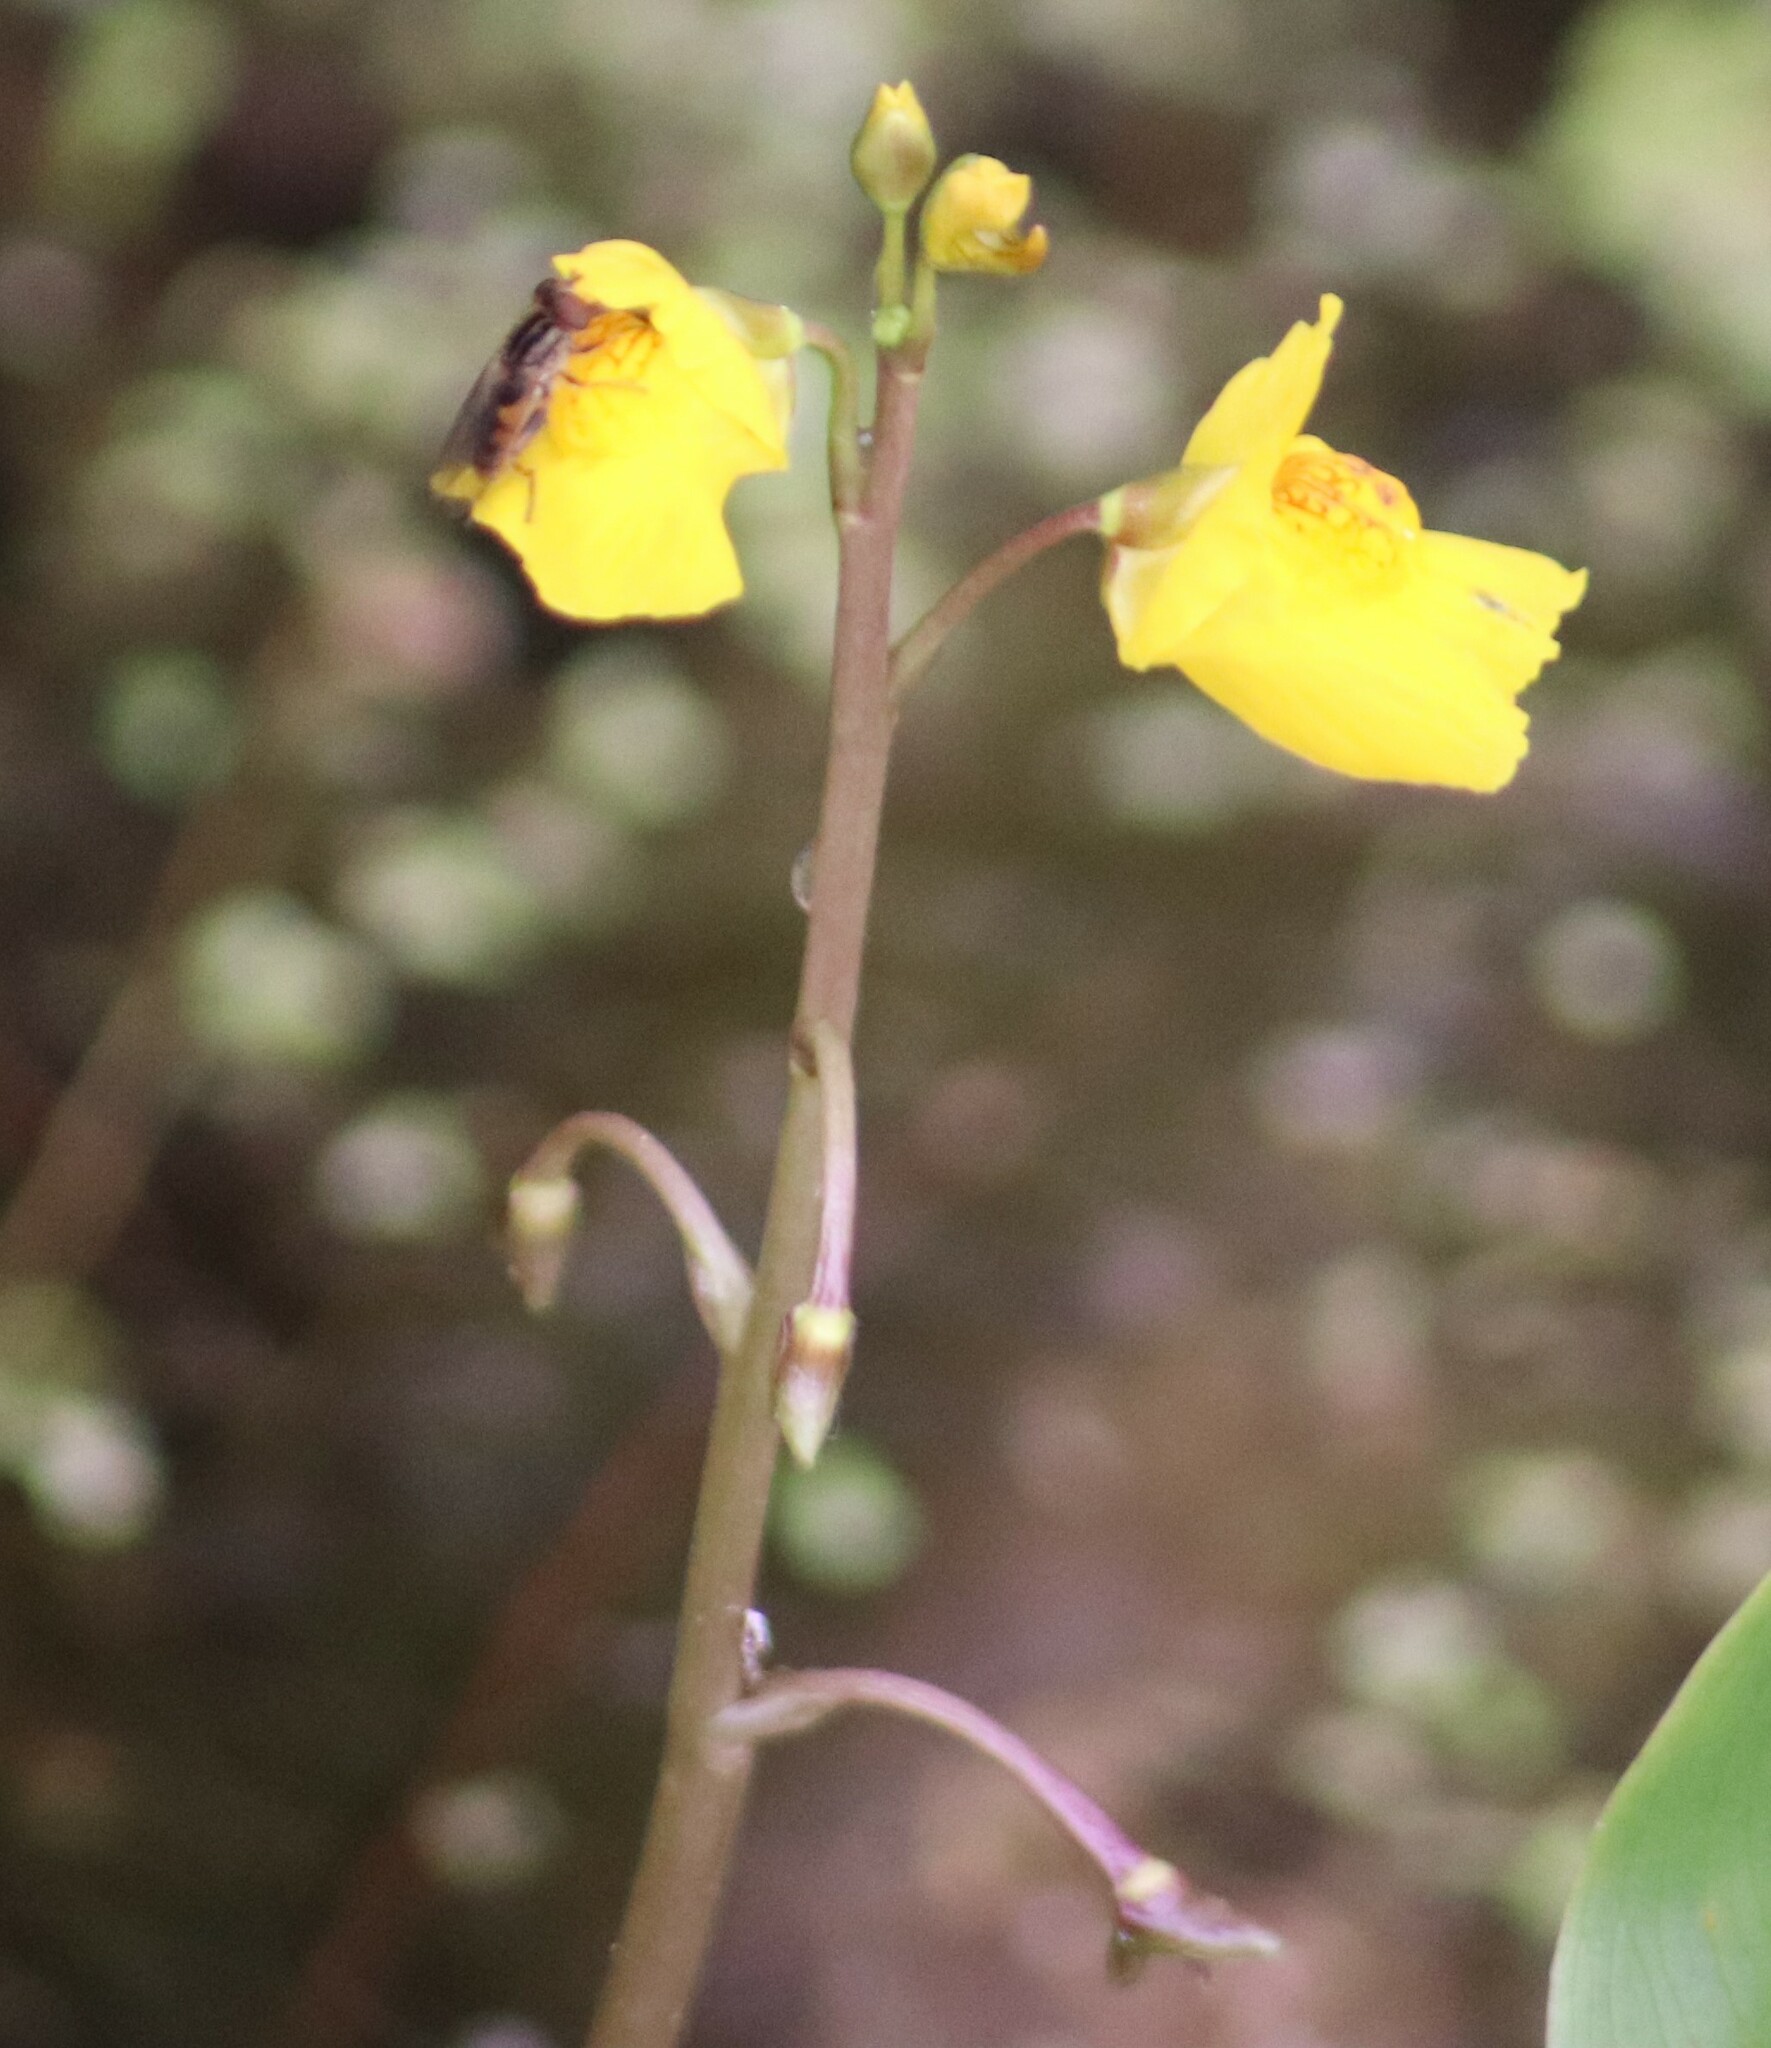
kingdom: Plantae
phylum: Tracheophyta
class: Magnoliopsida
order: Lamiales
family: Lentibulariaceae
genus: Utricularia
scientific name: Utricularia macrorhiza
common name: Common bladderwort
